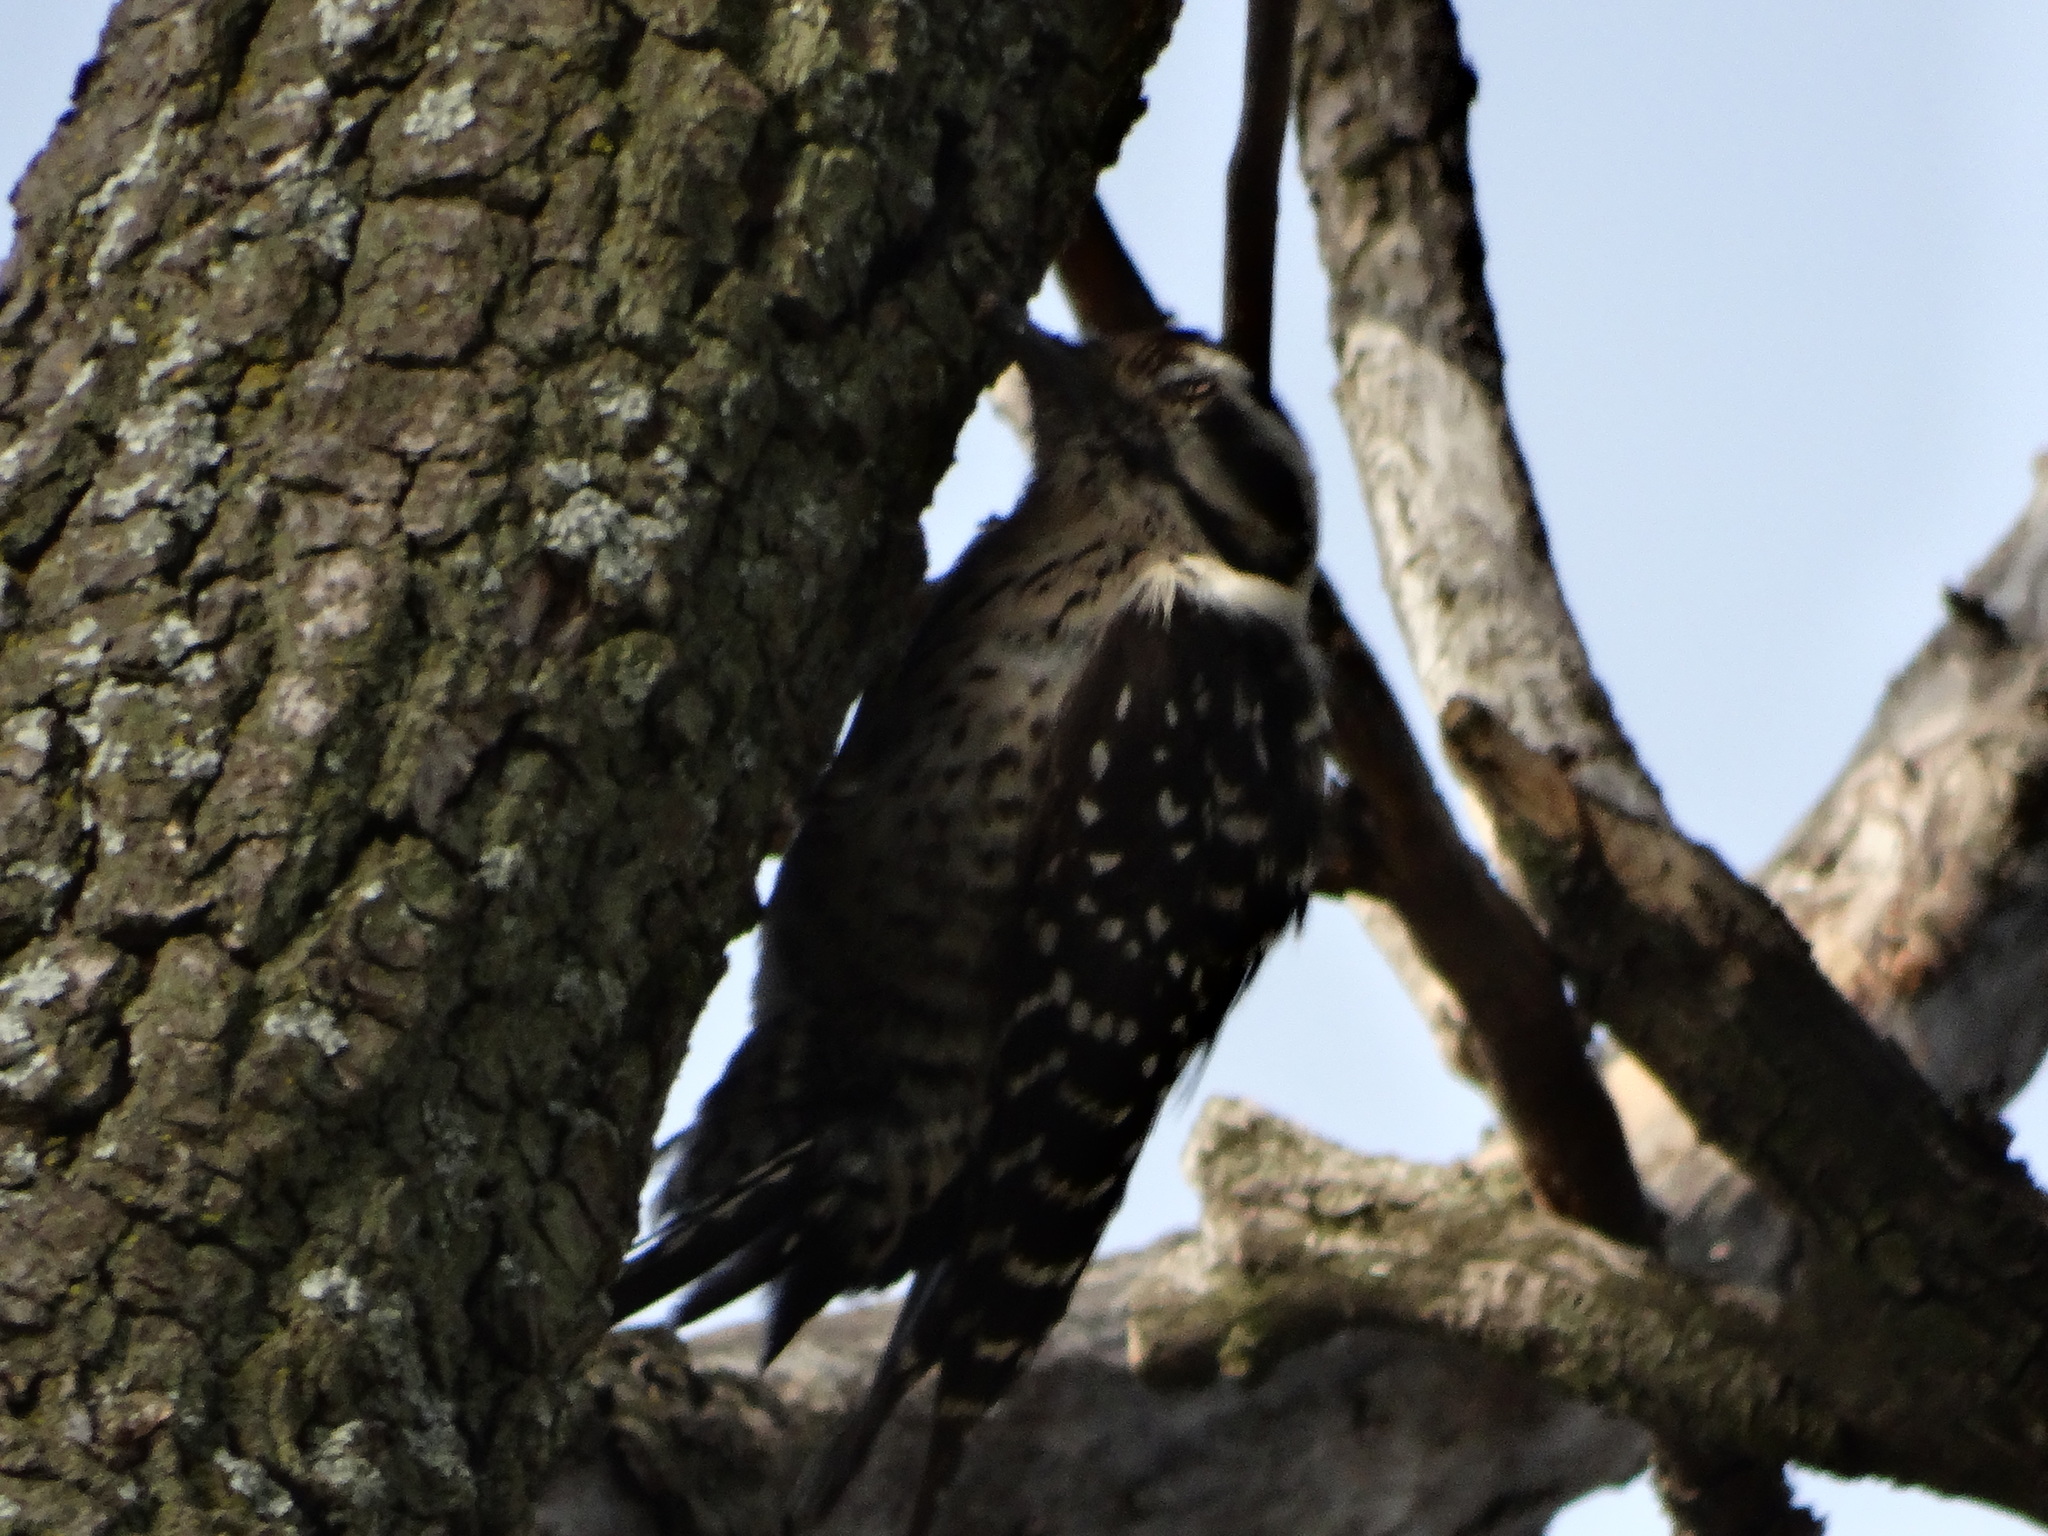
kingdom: Animalia
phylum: Chordata
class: Aves
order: Piciformes
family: Picidae
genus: Dryobates
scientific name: Dryobates scalaris
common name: Ladder-backed woodpecker
